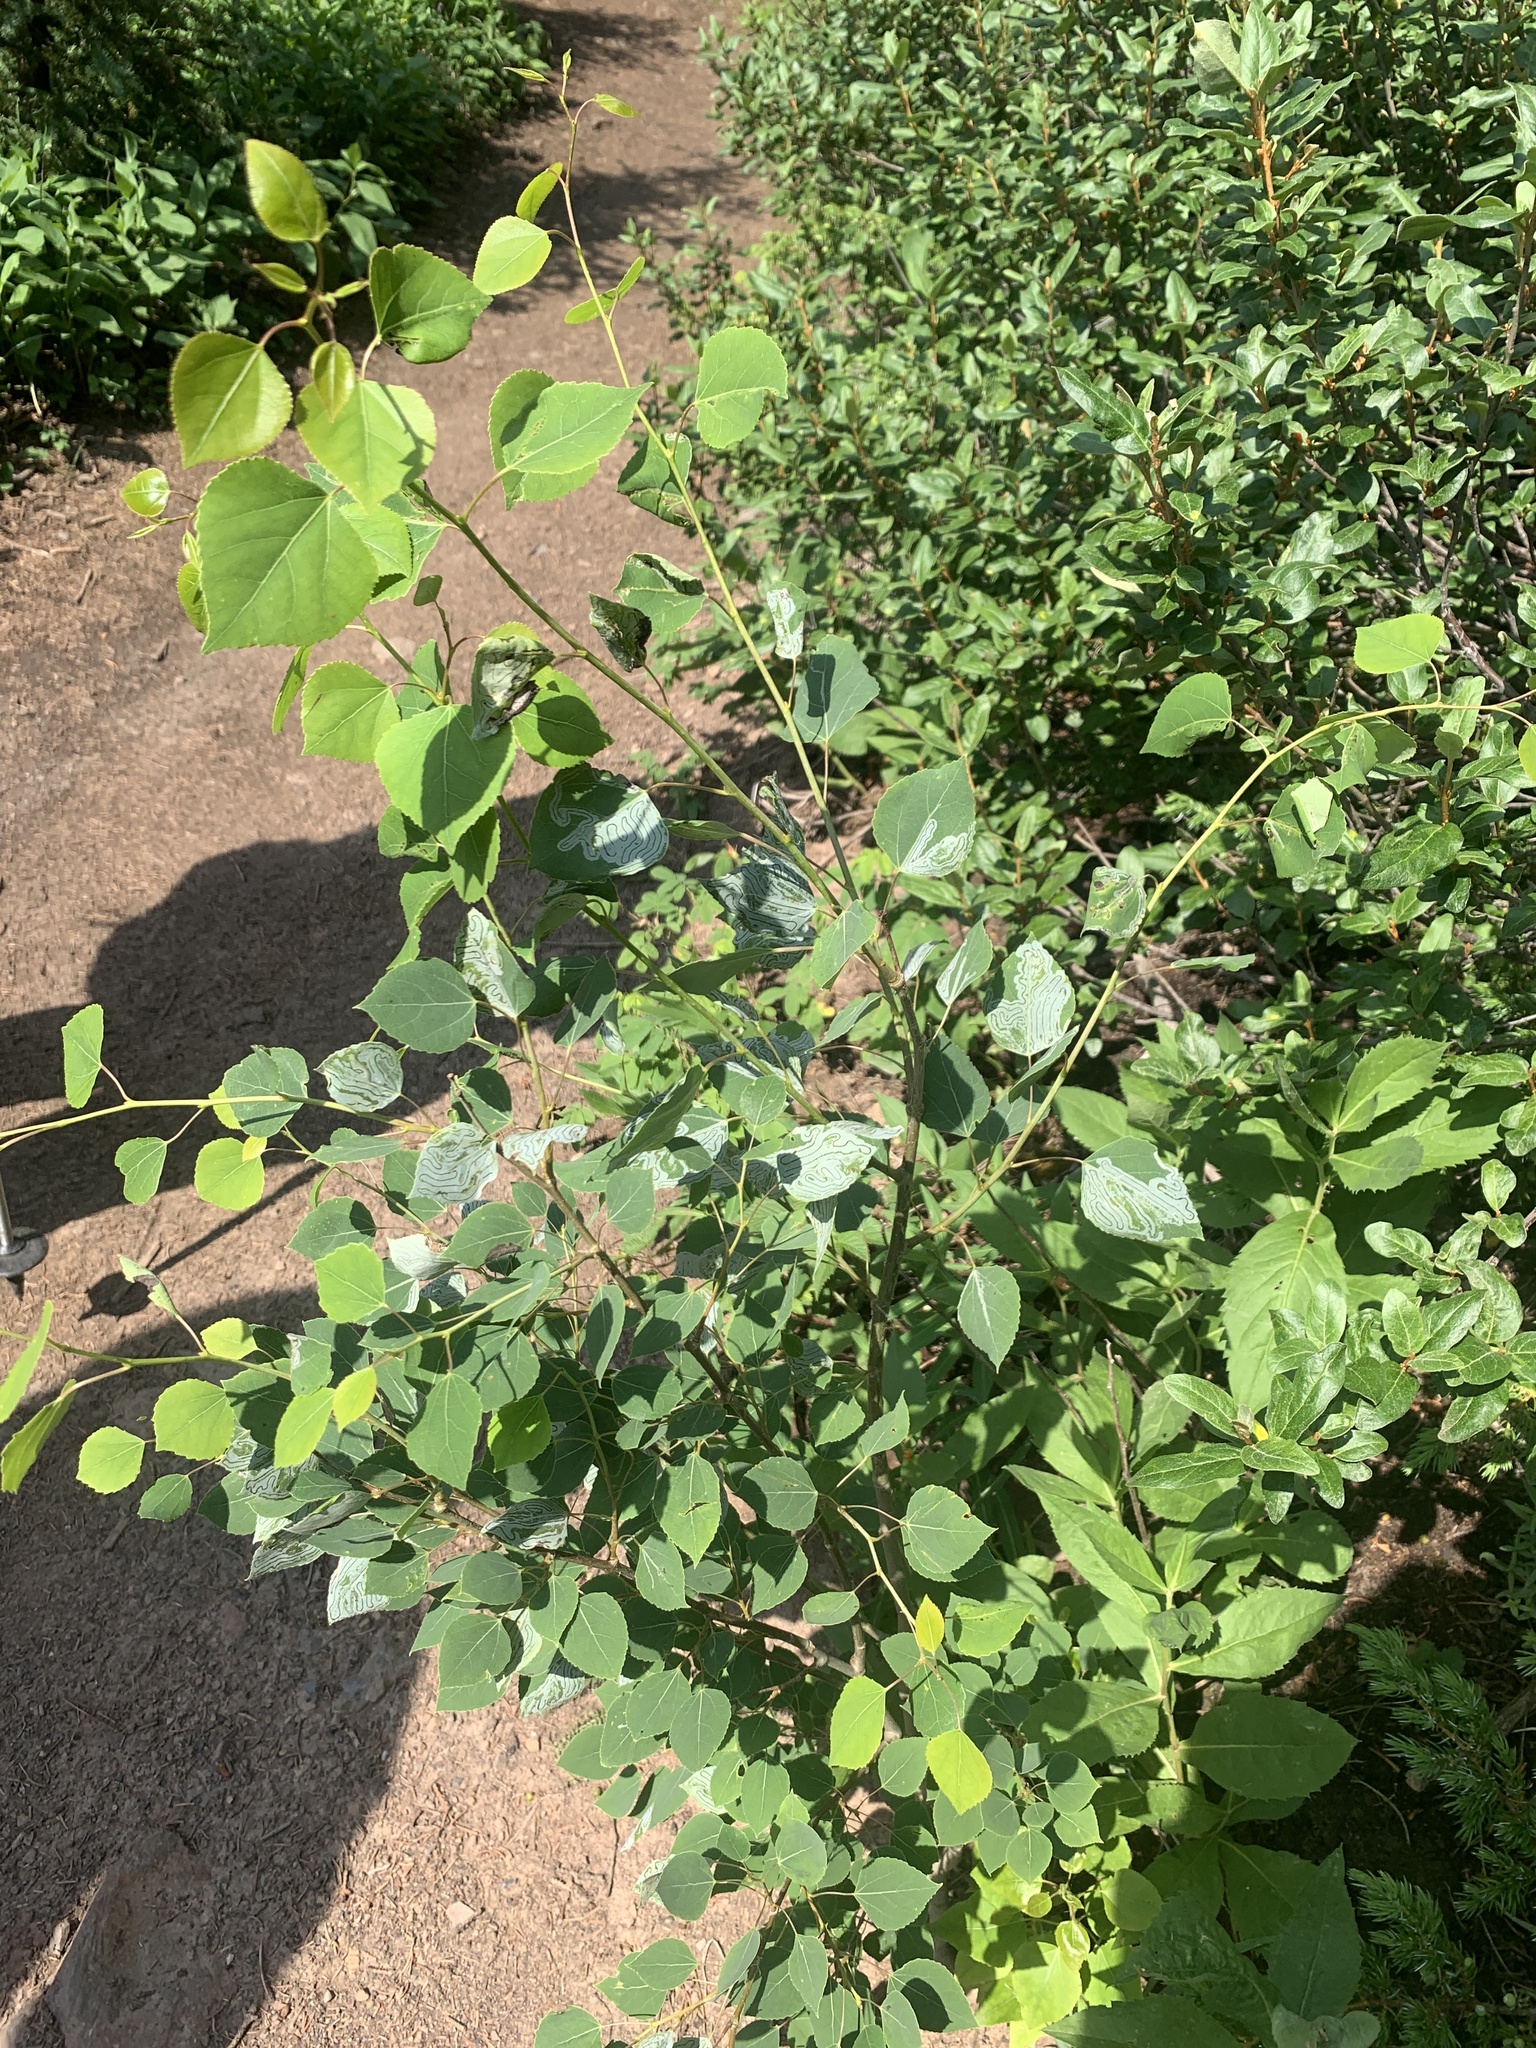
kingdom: Animalia
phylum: Arthropoda
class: Insecta
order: Lepidoptera
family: Gracillariidae
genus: Phyllocnistis
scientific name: Phyllocnistis populiella
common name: Aspen serpentine leafminer moth
